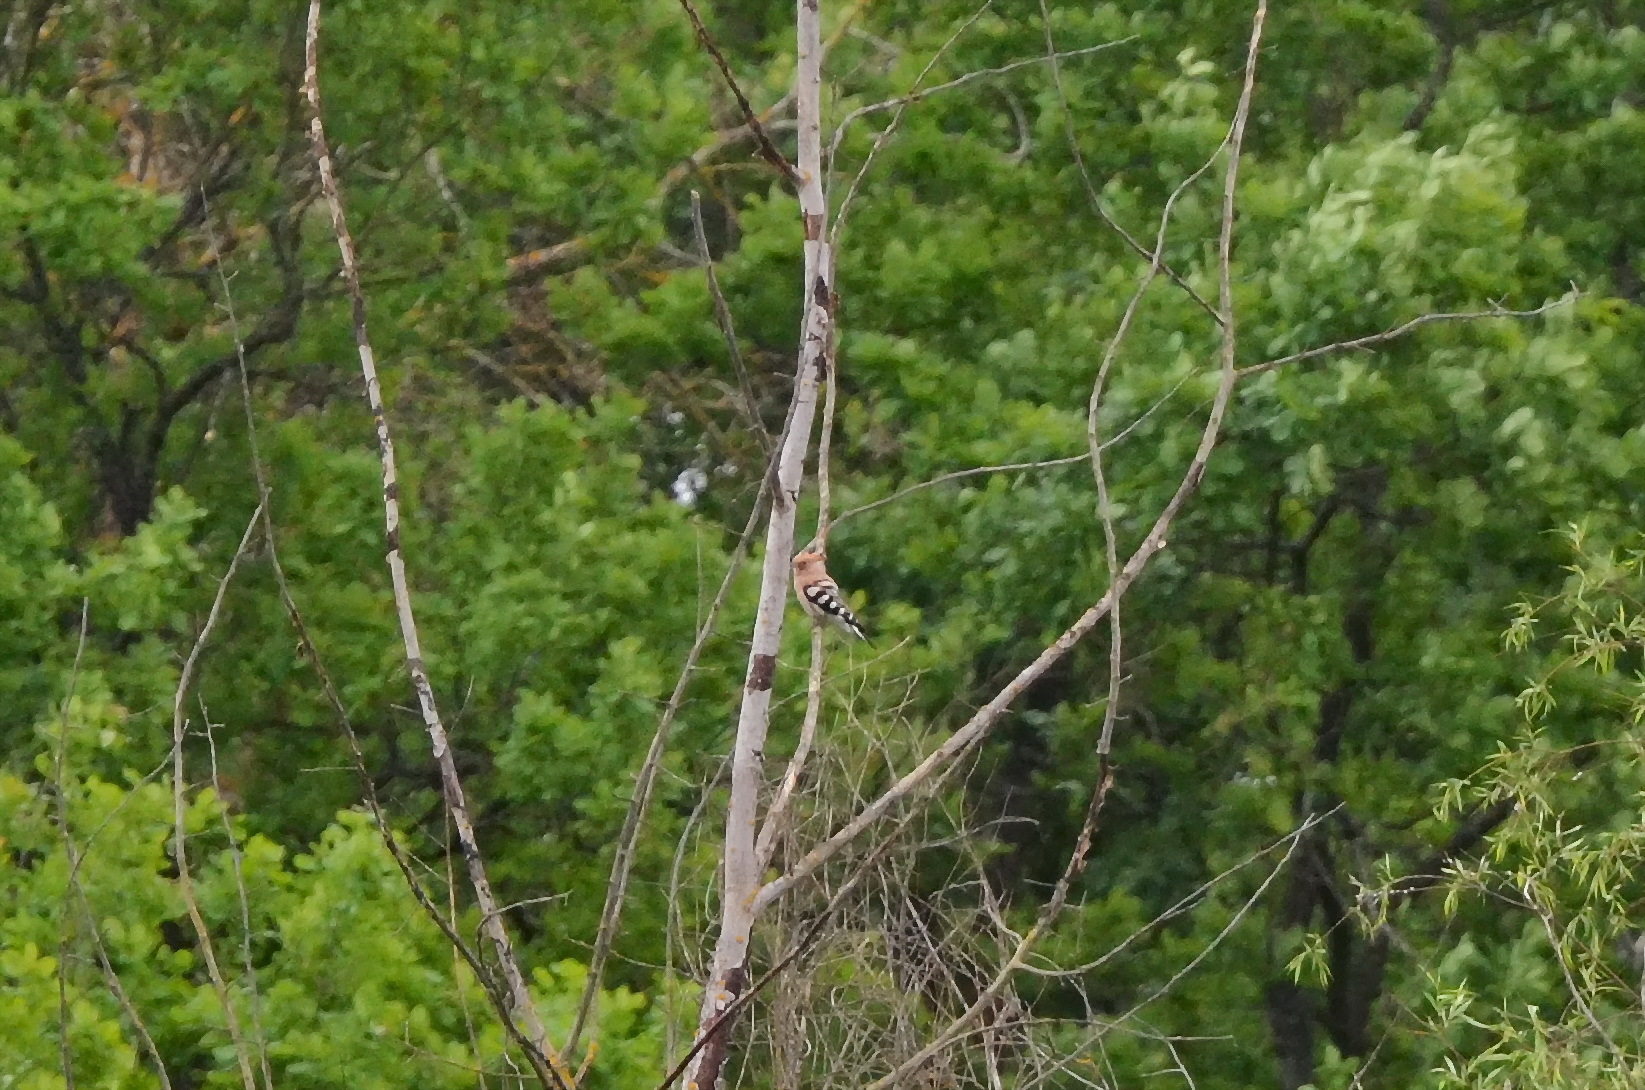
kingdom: Animalia
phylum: Chordata
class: Aves
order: Bucerotiformes
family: Upupidae
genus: Upupa
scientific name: Upupa epops
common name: Eurasian hoopoe
